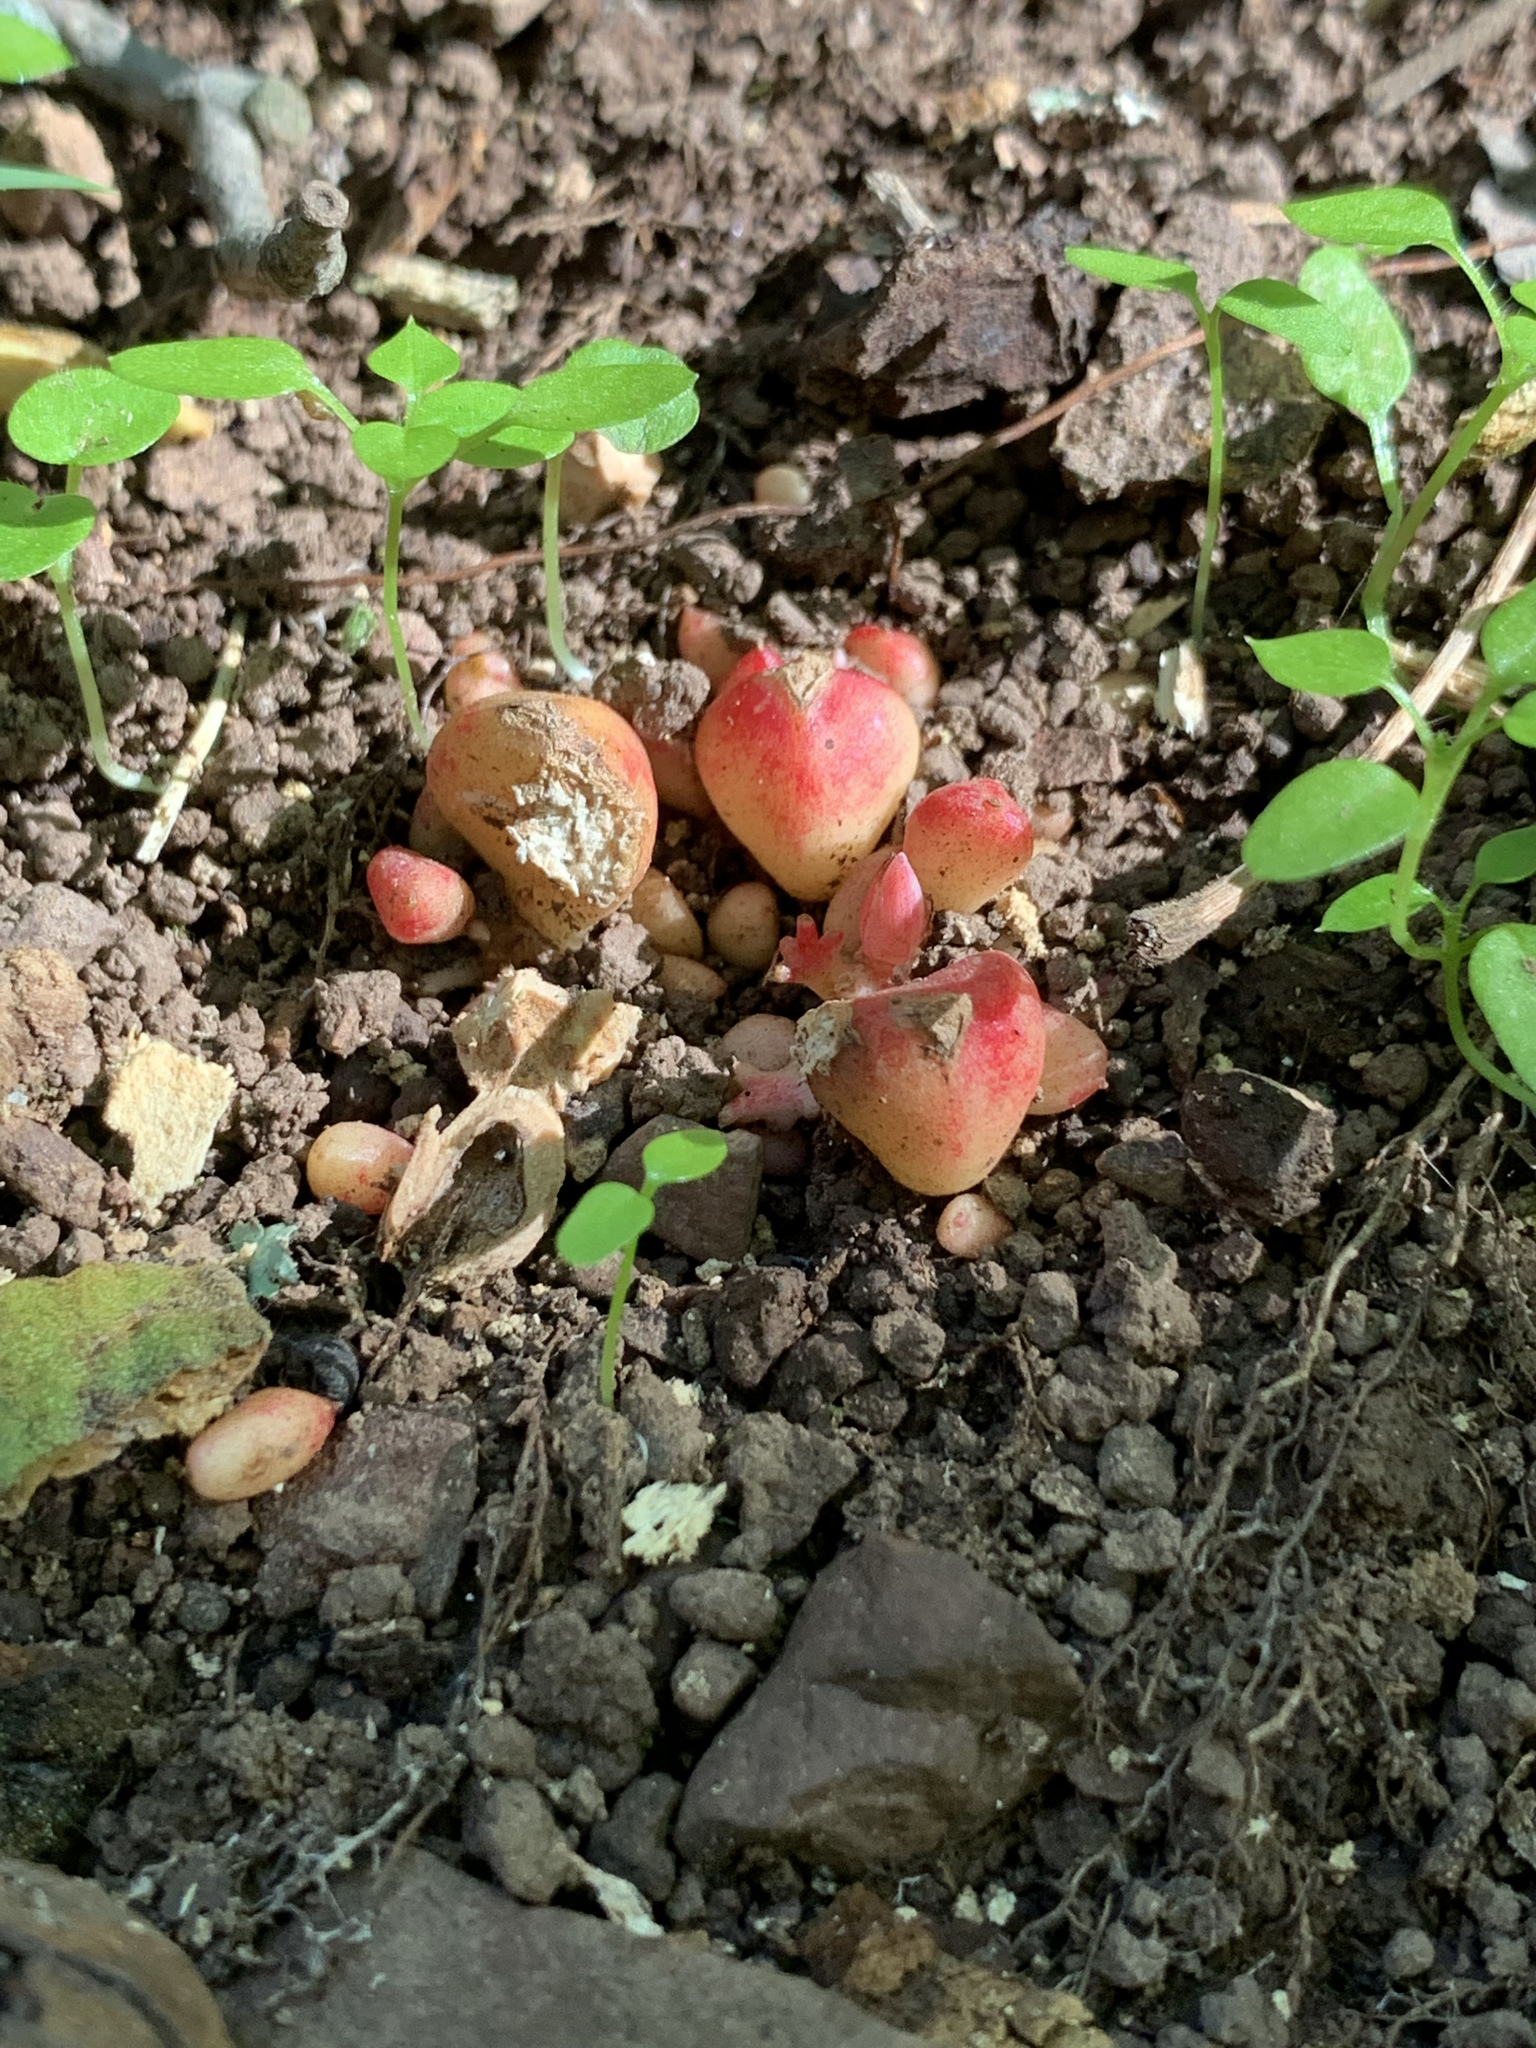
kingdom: Plantae
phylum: Tracheophyta
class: Magnoliopsida
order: Ranunculales
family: Papaveraceae
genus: Dicentra
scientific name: Dicentra cucullaria
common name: Dutchman's breeches
